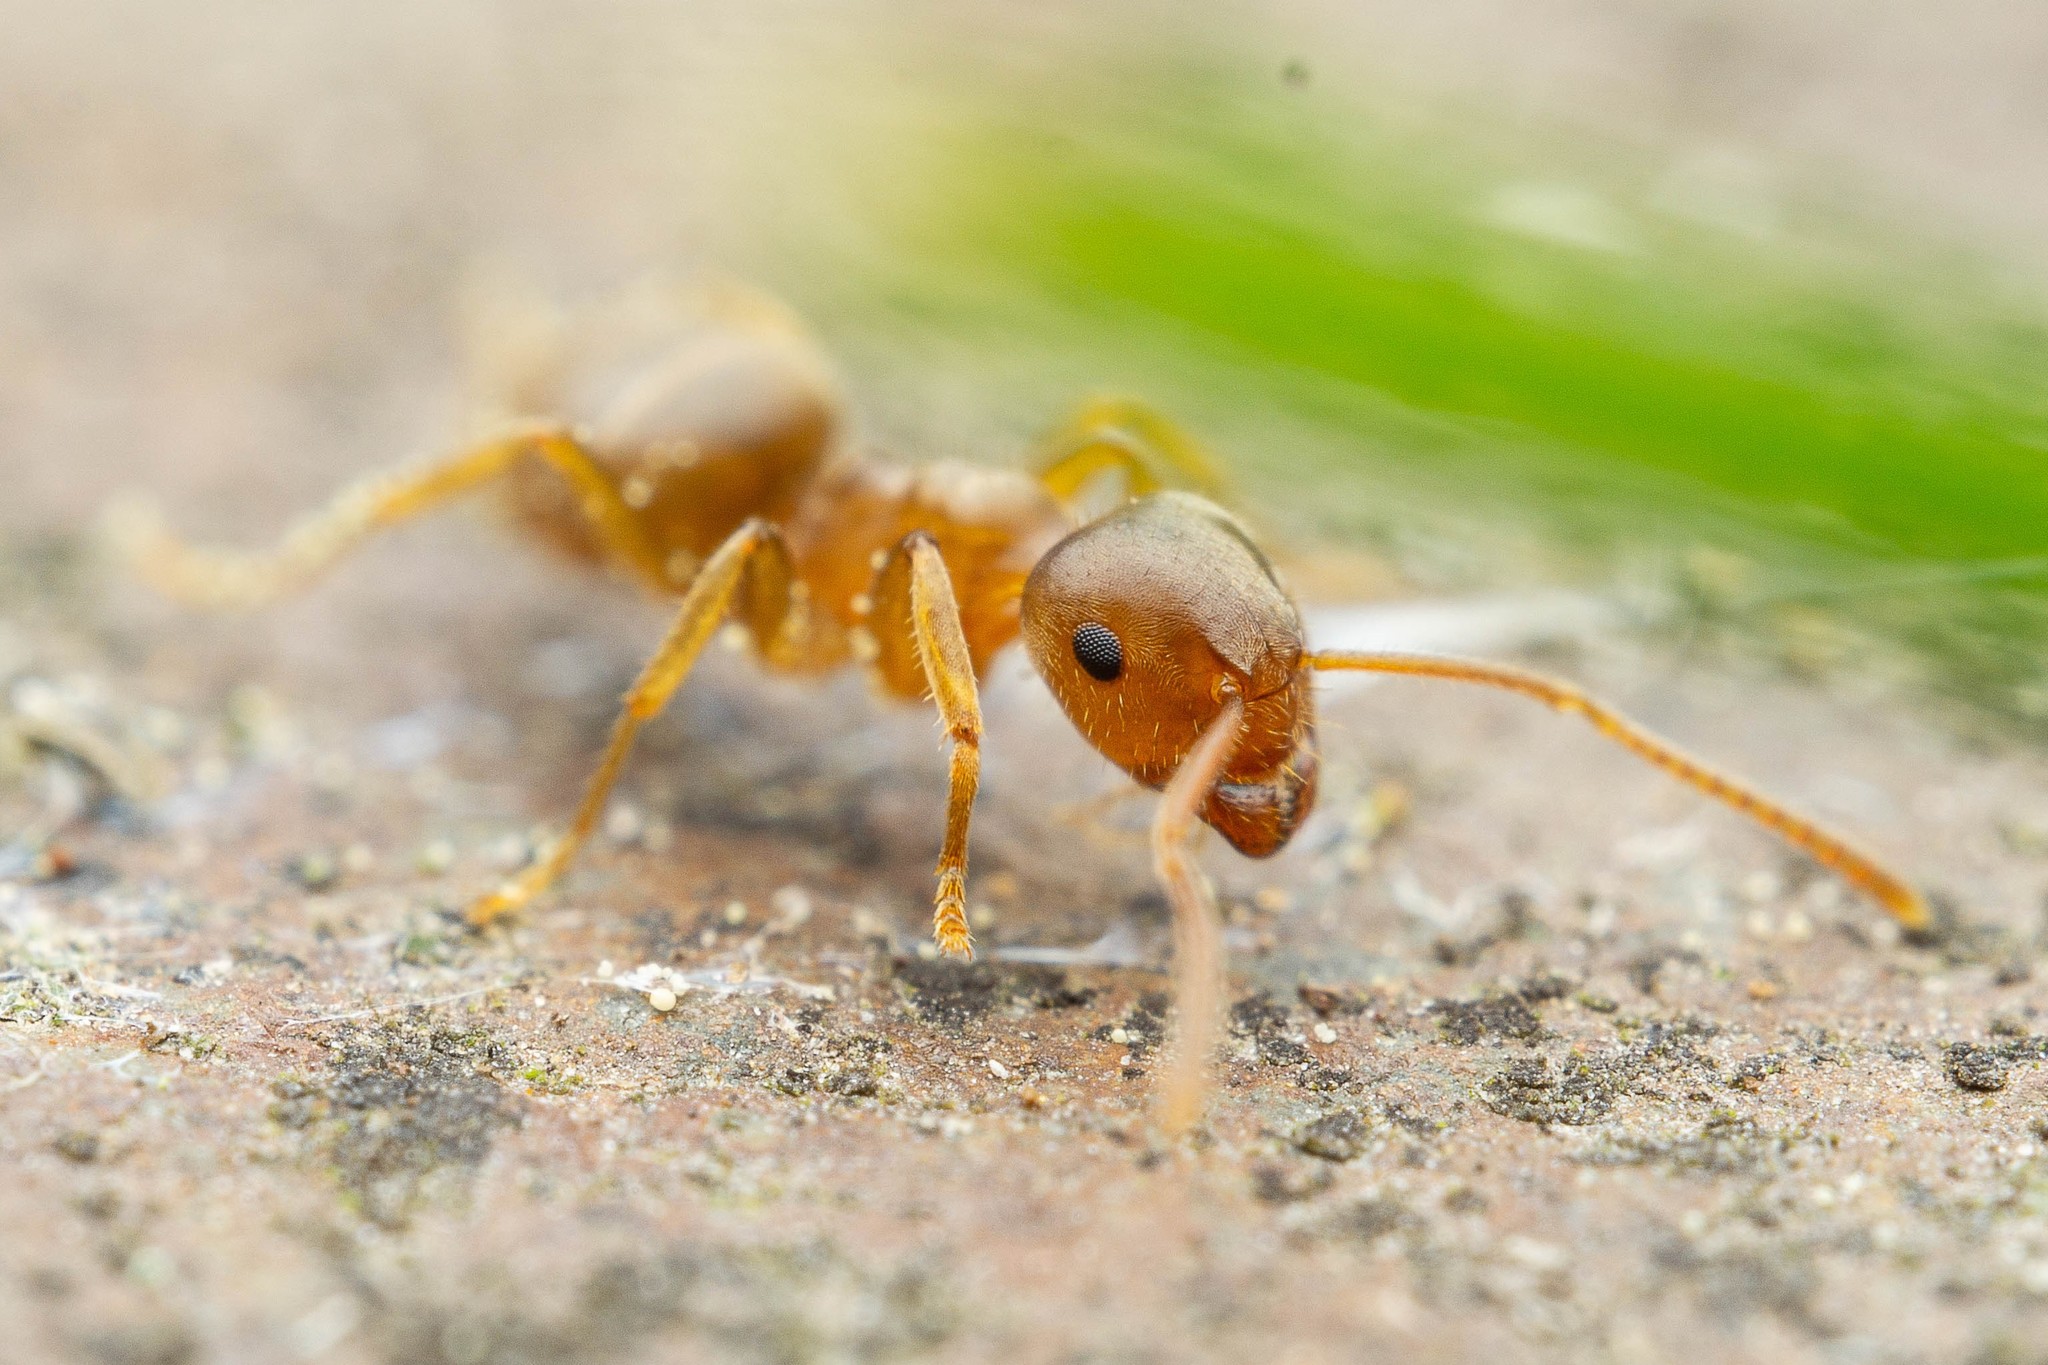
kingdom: Animalia
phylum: Arthropoda
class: Insecta
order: Hymenoptera
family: Formicidae
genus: Lasius
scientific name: Lasius pallitarsis
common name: Subterranean aphid-tending ant
